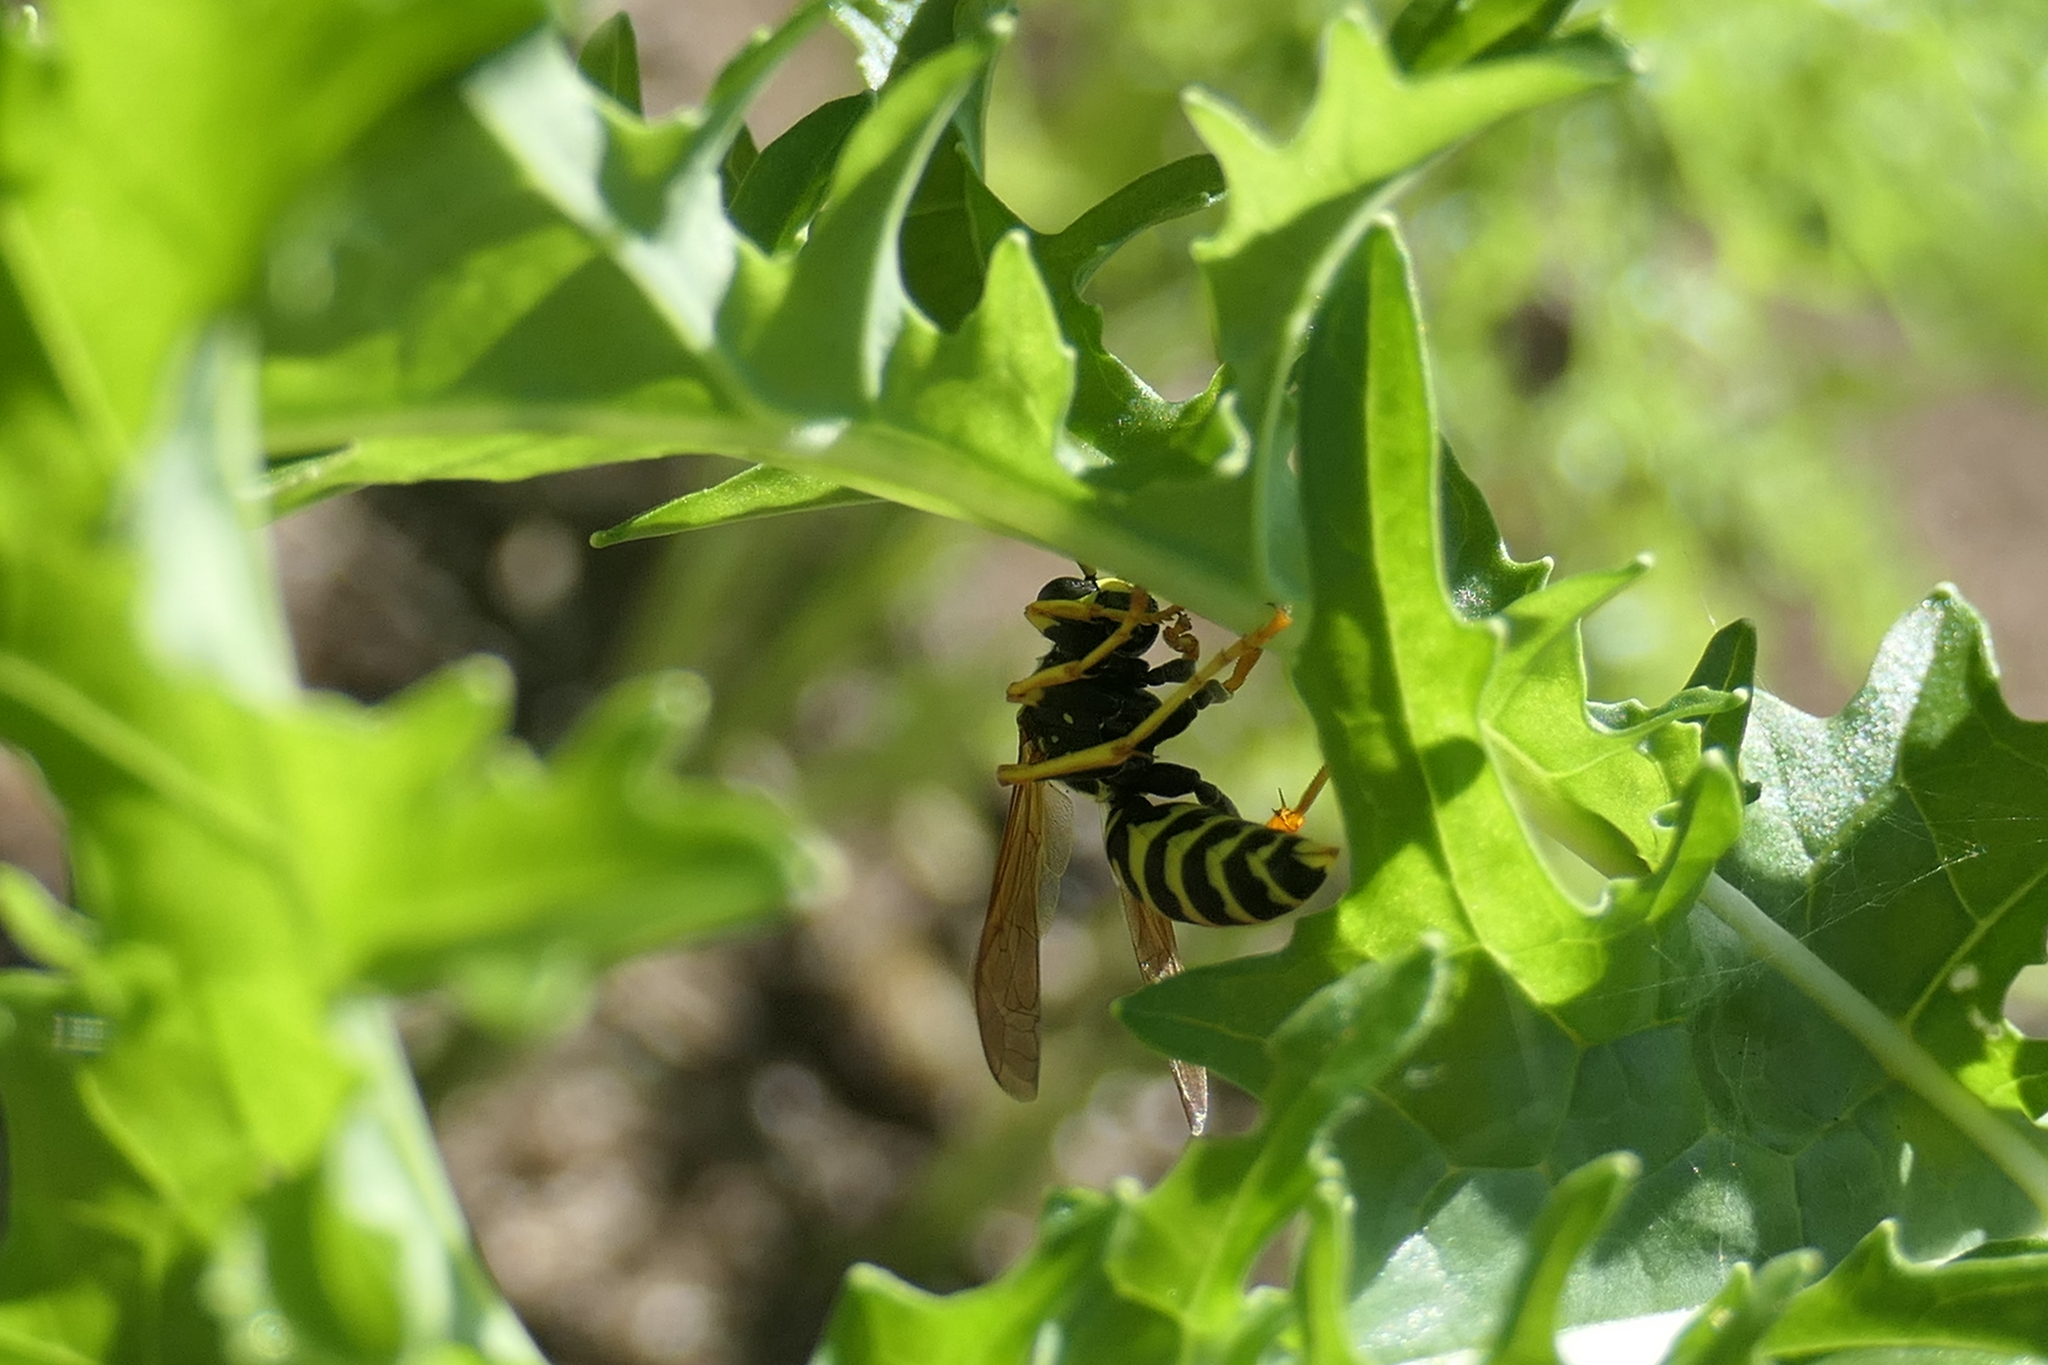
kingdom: Animalia
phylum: Arthropoda
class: Insecta
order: Hymenoptera
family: Eumenidae
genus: Polistes
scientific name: Polistes dominula
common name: Paper wasp
